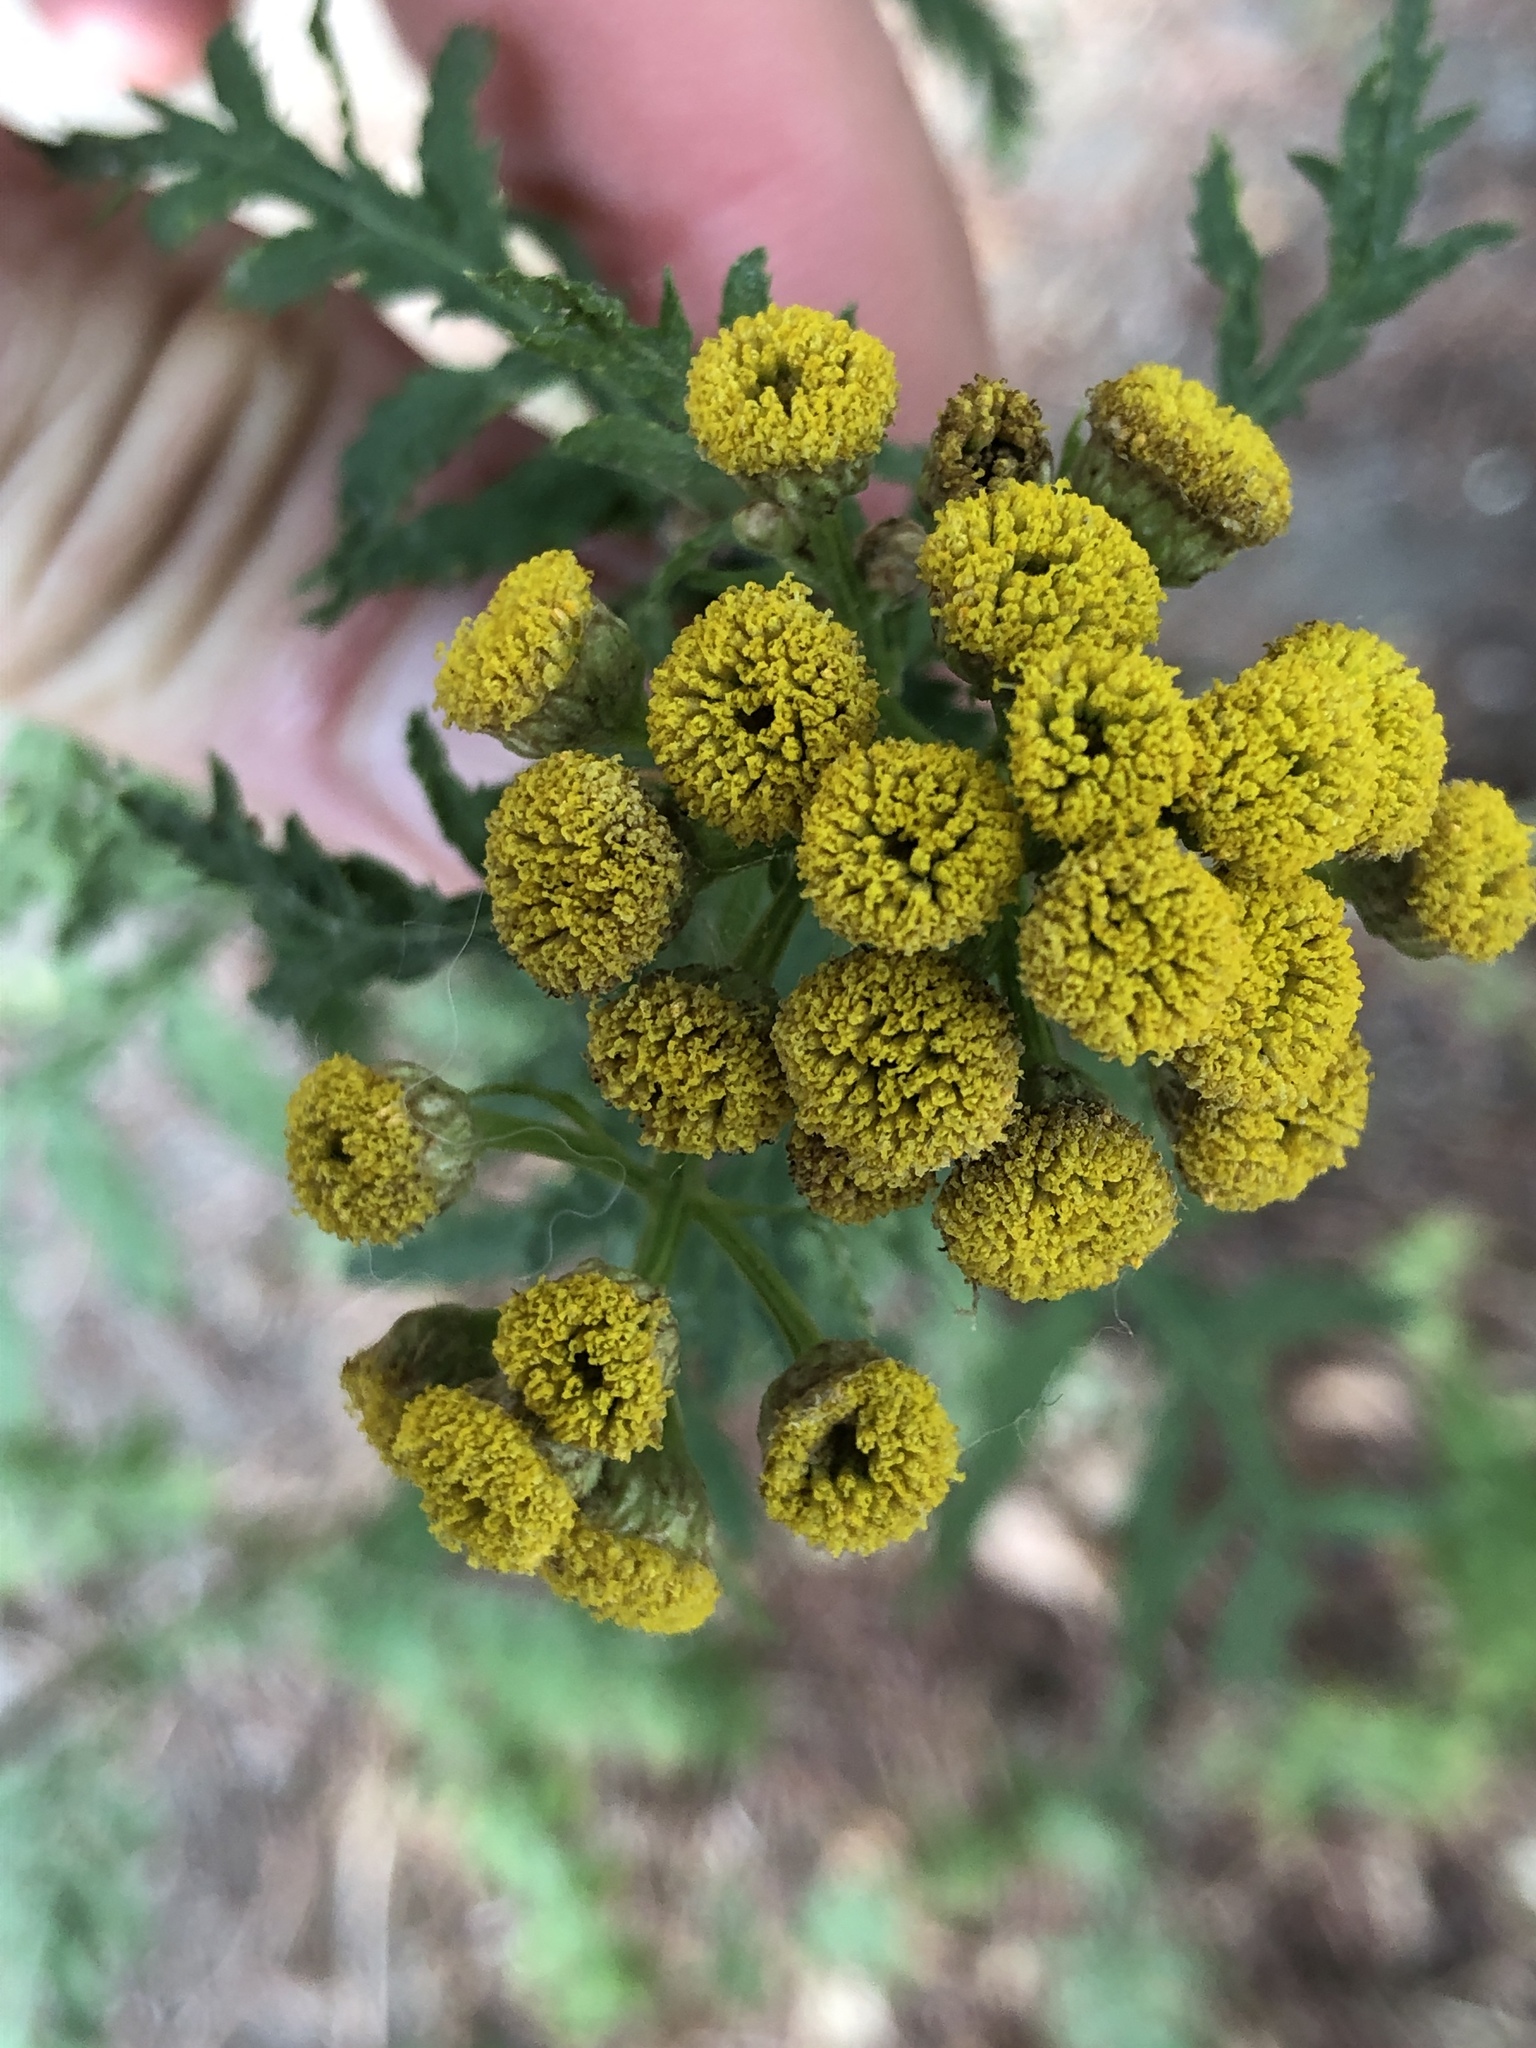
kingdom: Plantae
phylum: Tracheophyta
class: Magnoliopsida
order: Asterales
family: Asteraceae
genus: Tanacetum
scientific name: Tanacetum vulgare
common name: Common tansy
